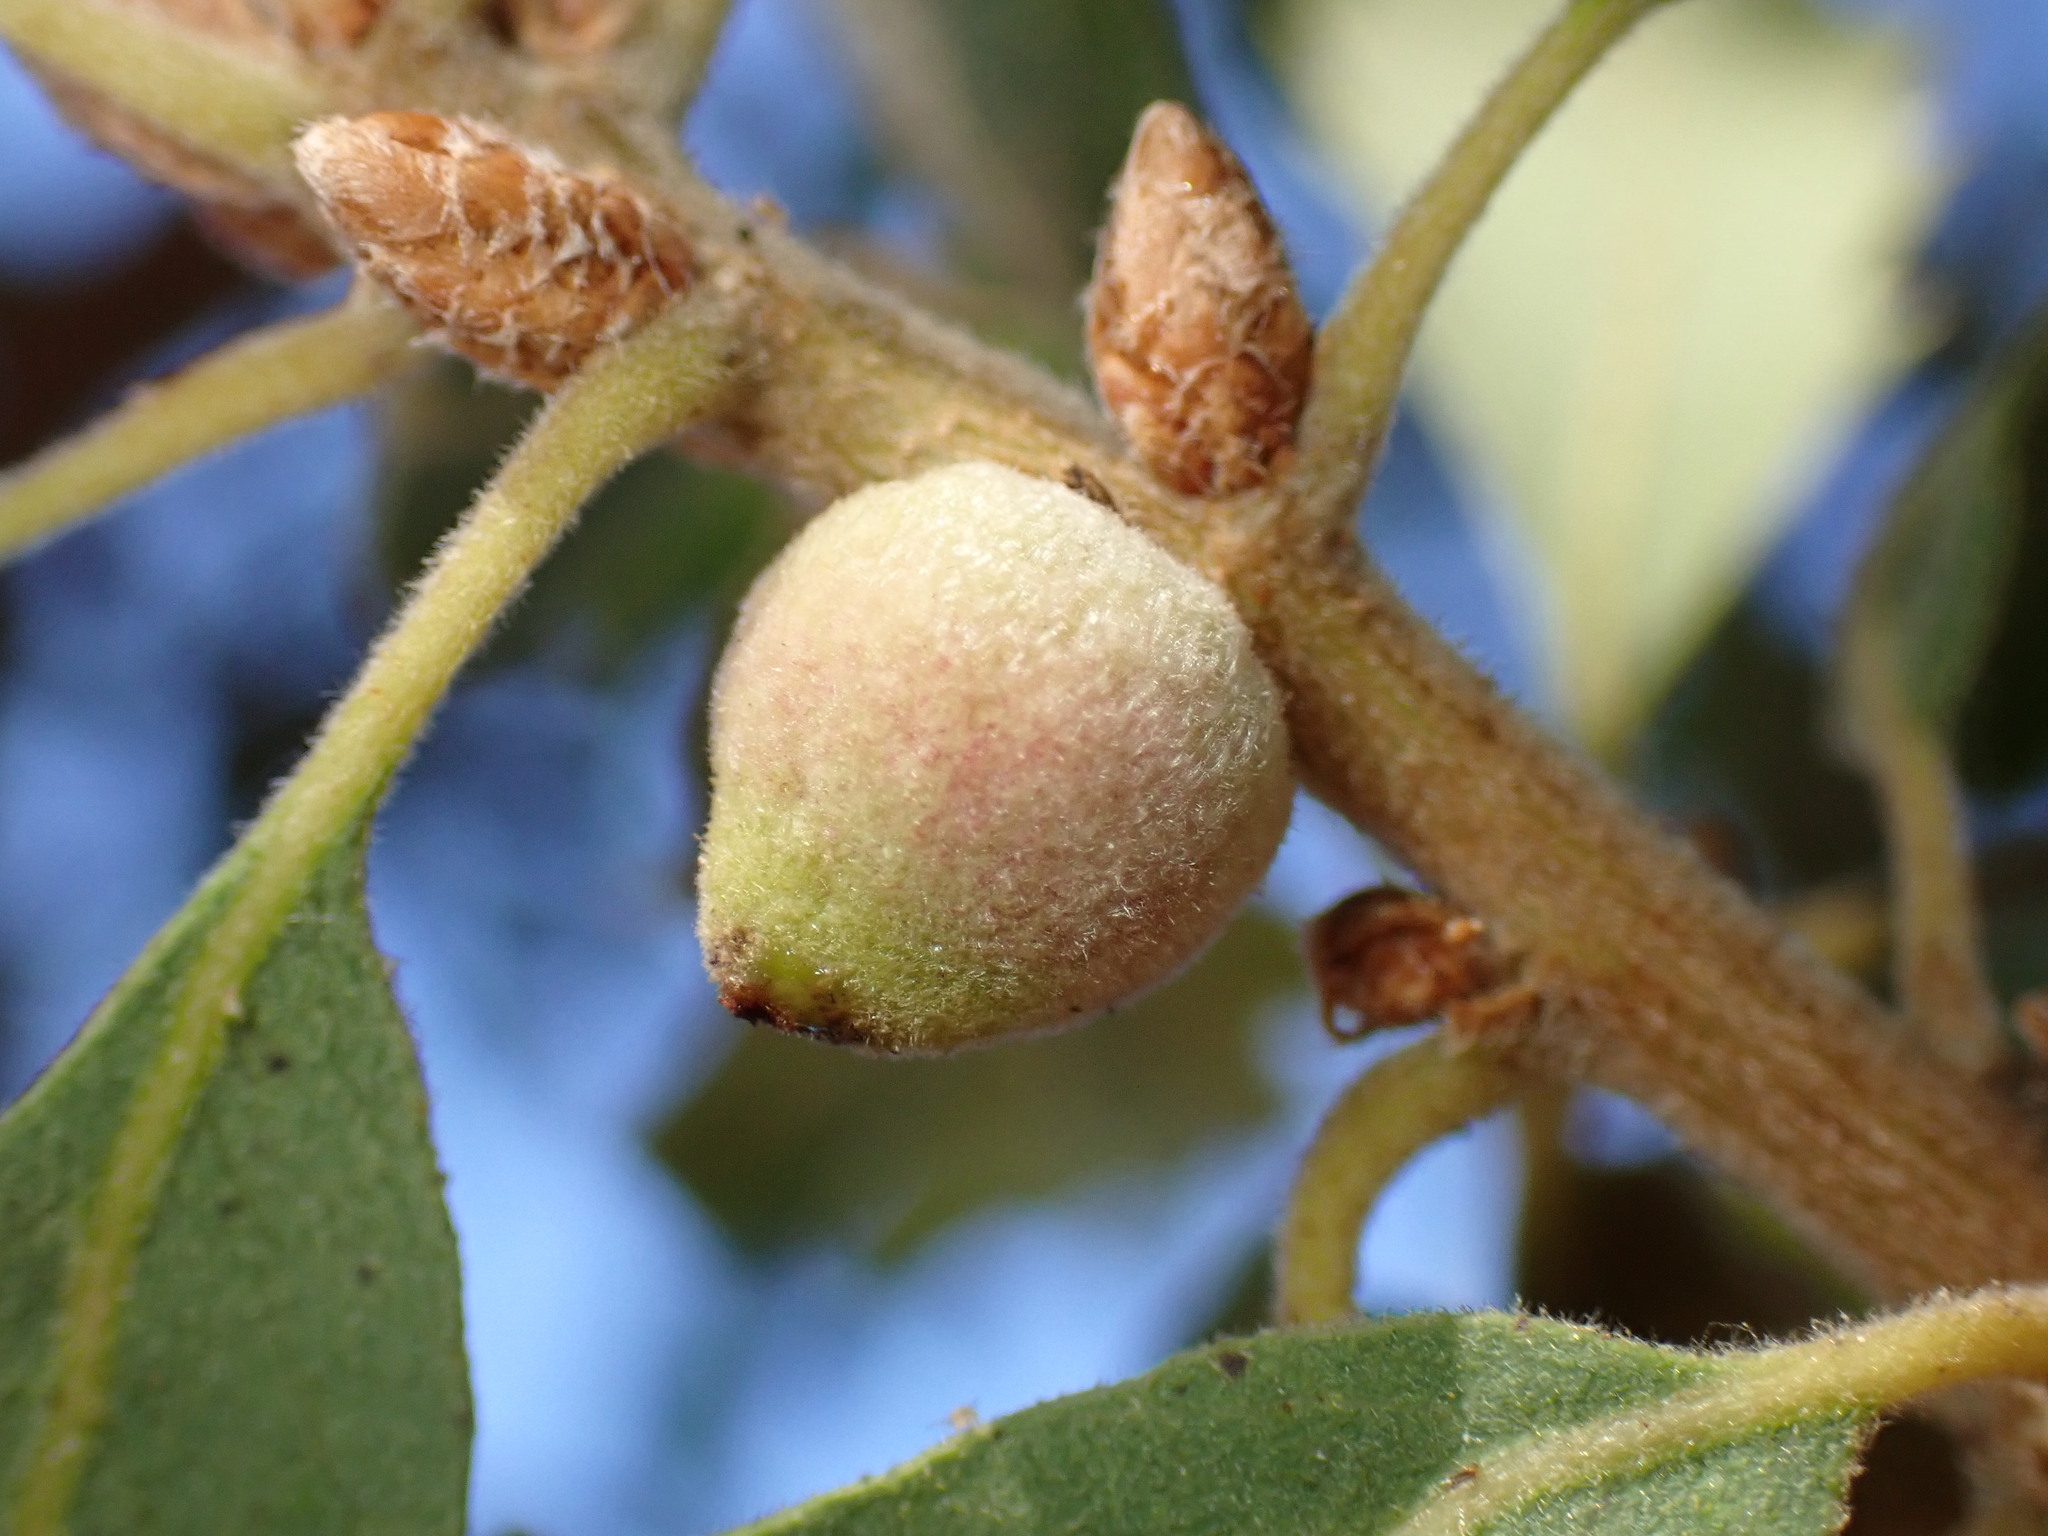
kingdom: Animalia
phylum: Arthropoda
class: Insecta
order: Hymenoptera
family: Cynipidae
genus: Disholcaspis
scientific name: Disholcaspis
